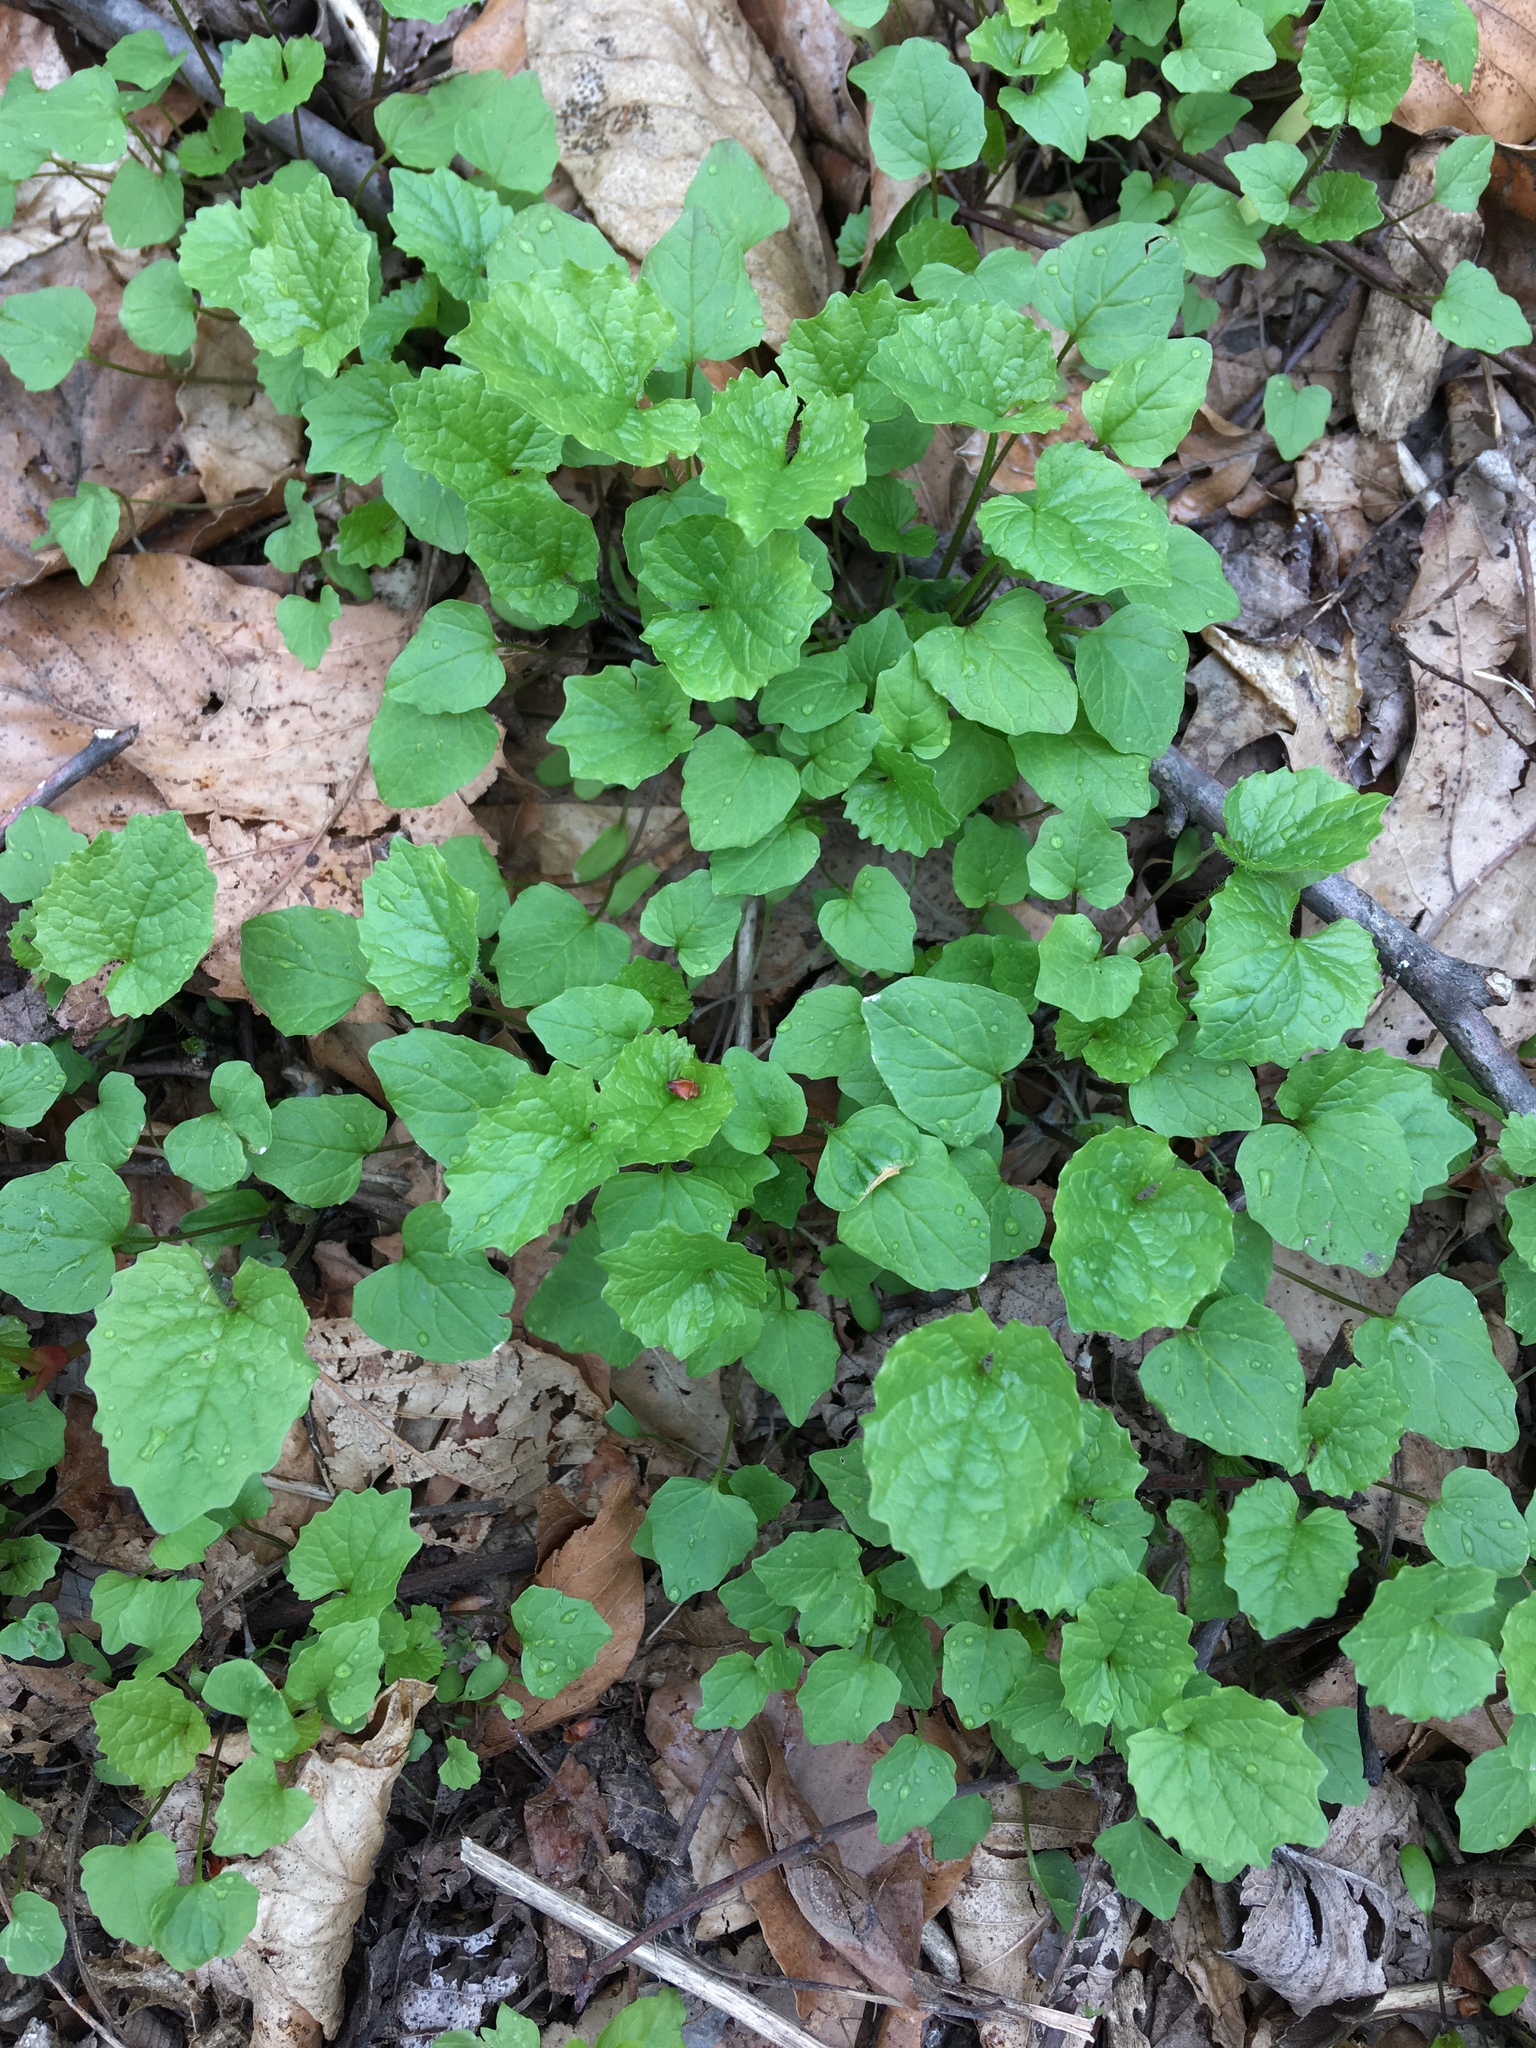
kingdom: Plantae
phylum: Tracheophyta
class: Magnoliopsida
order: Brassicales
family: Brassicaceae
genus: Alliaria
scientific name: Alliaria petiolata
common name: Garlic mustard
